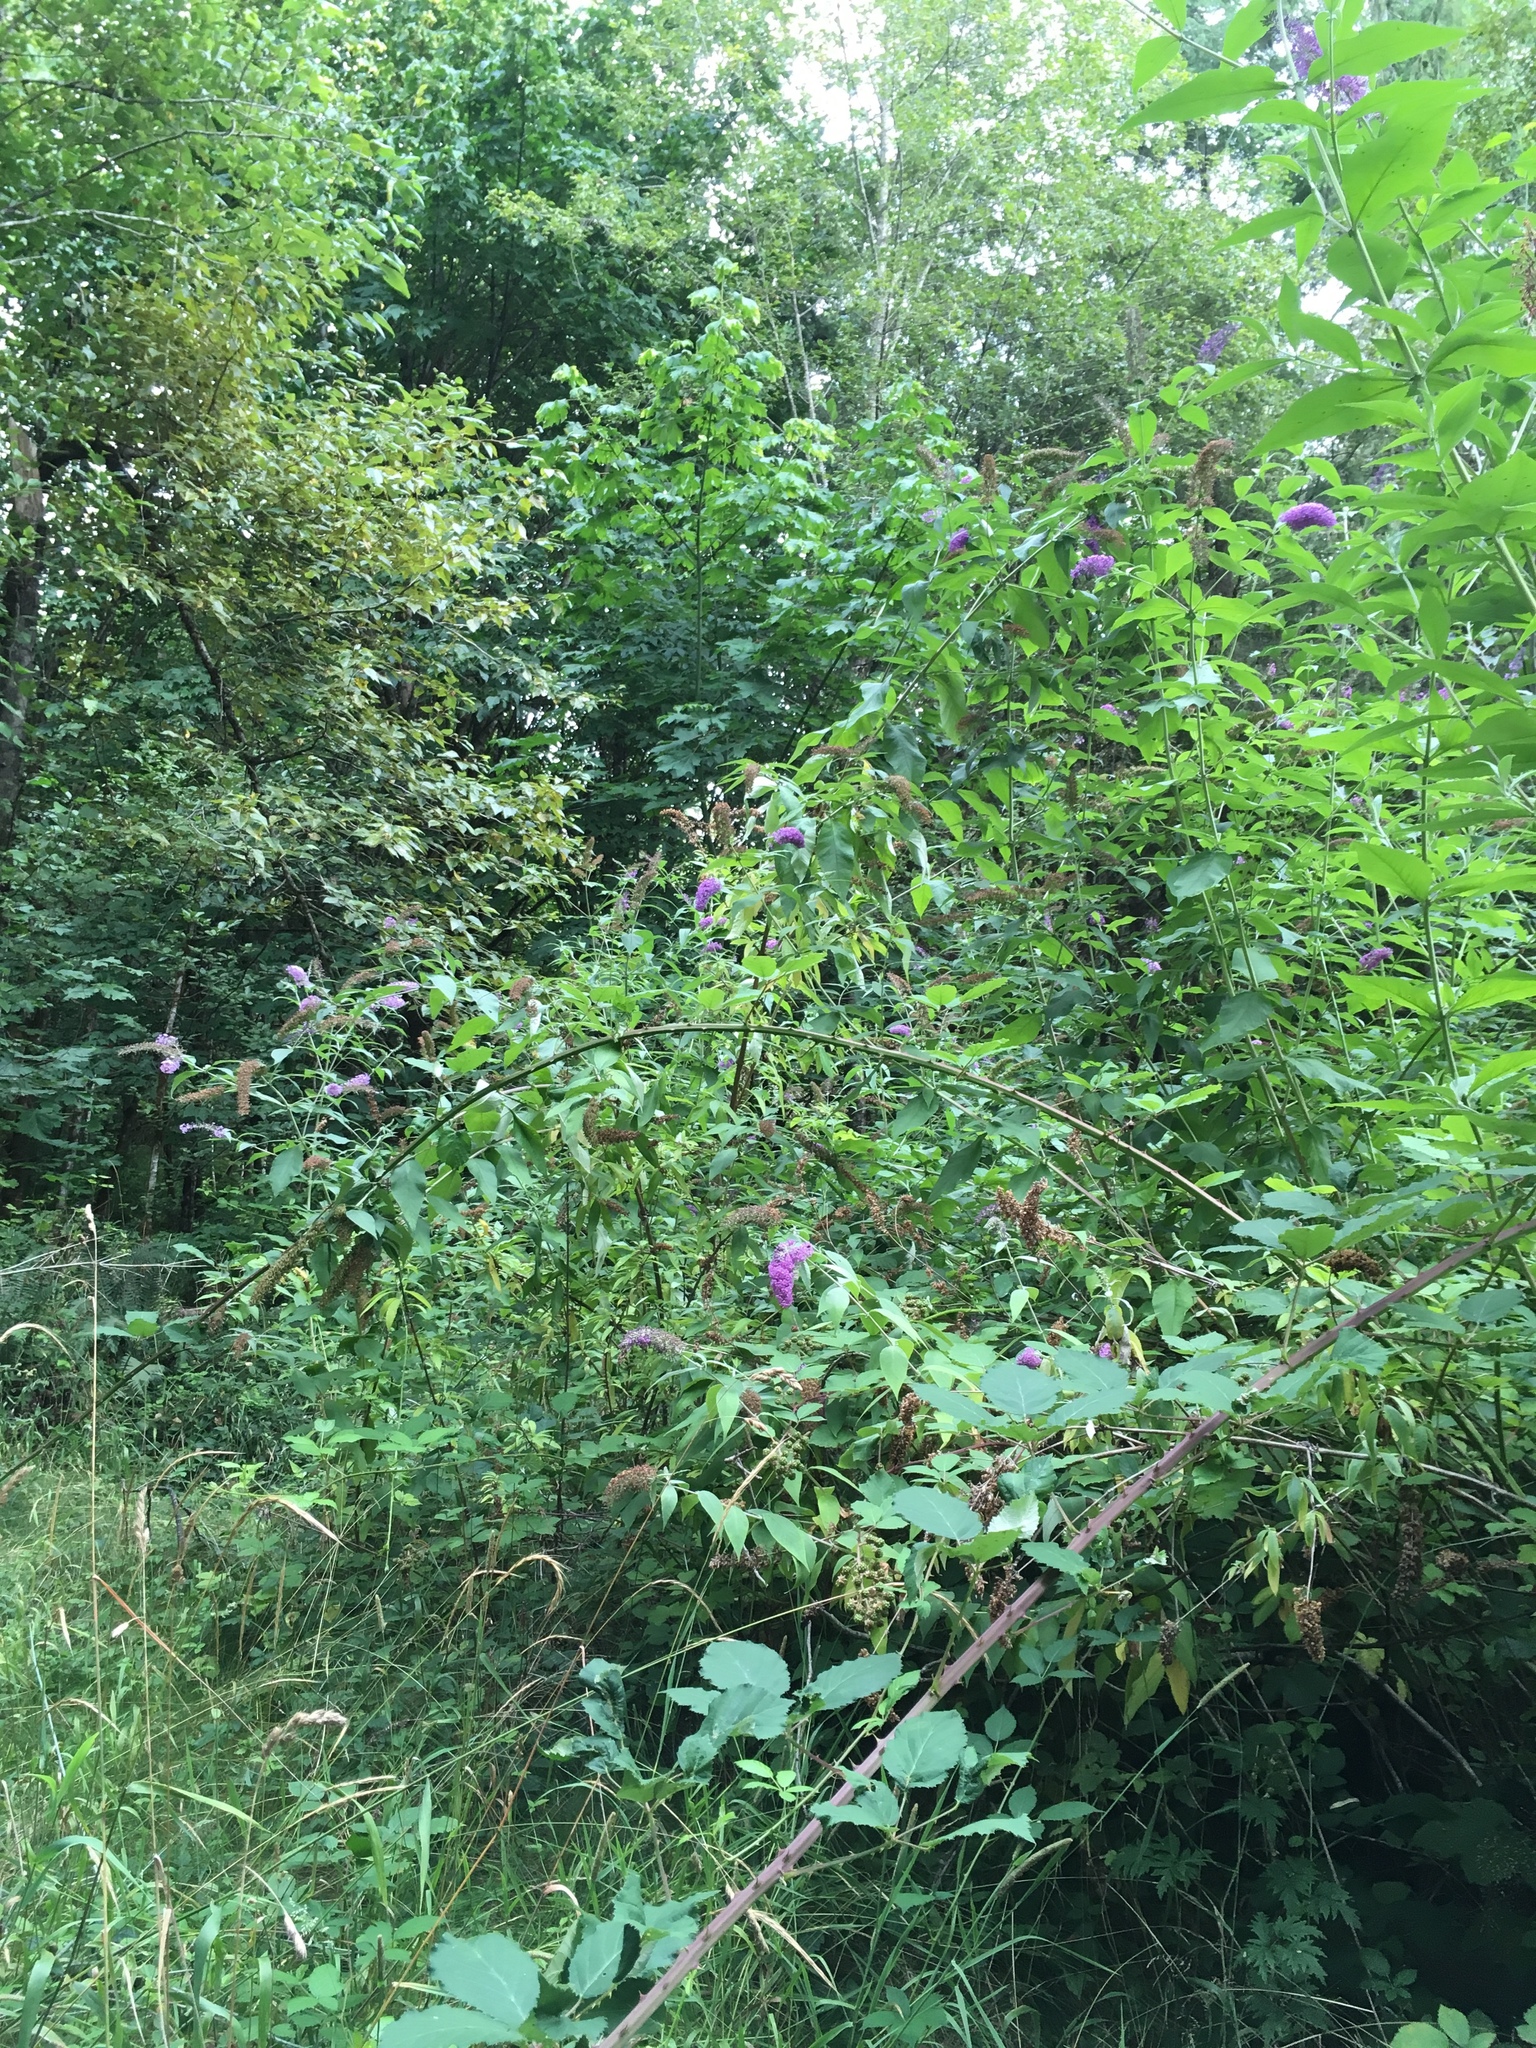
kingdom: Plantae
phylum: Tracheophyta
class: Magnoliopsida
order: Lamiales
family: Scrophulariaceae
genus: Buddleja
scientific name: Buddleja davidii
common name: Butterfly-bush
